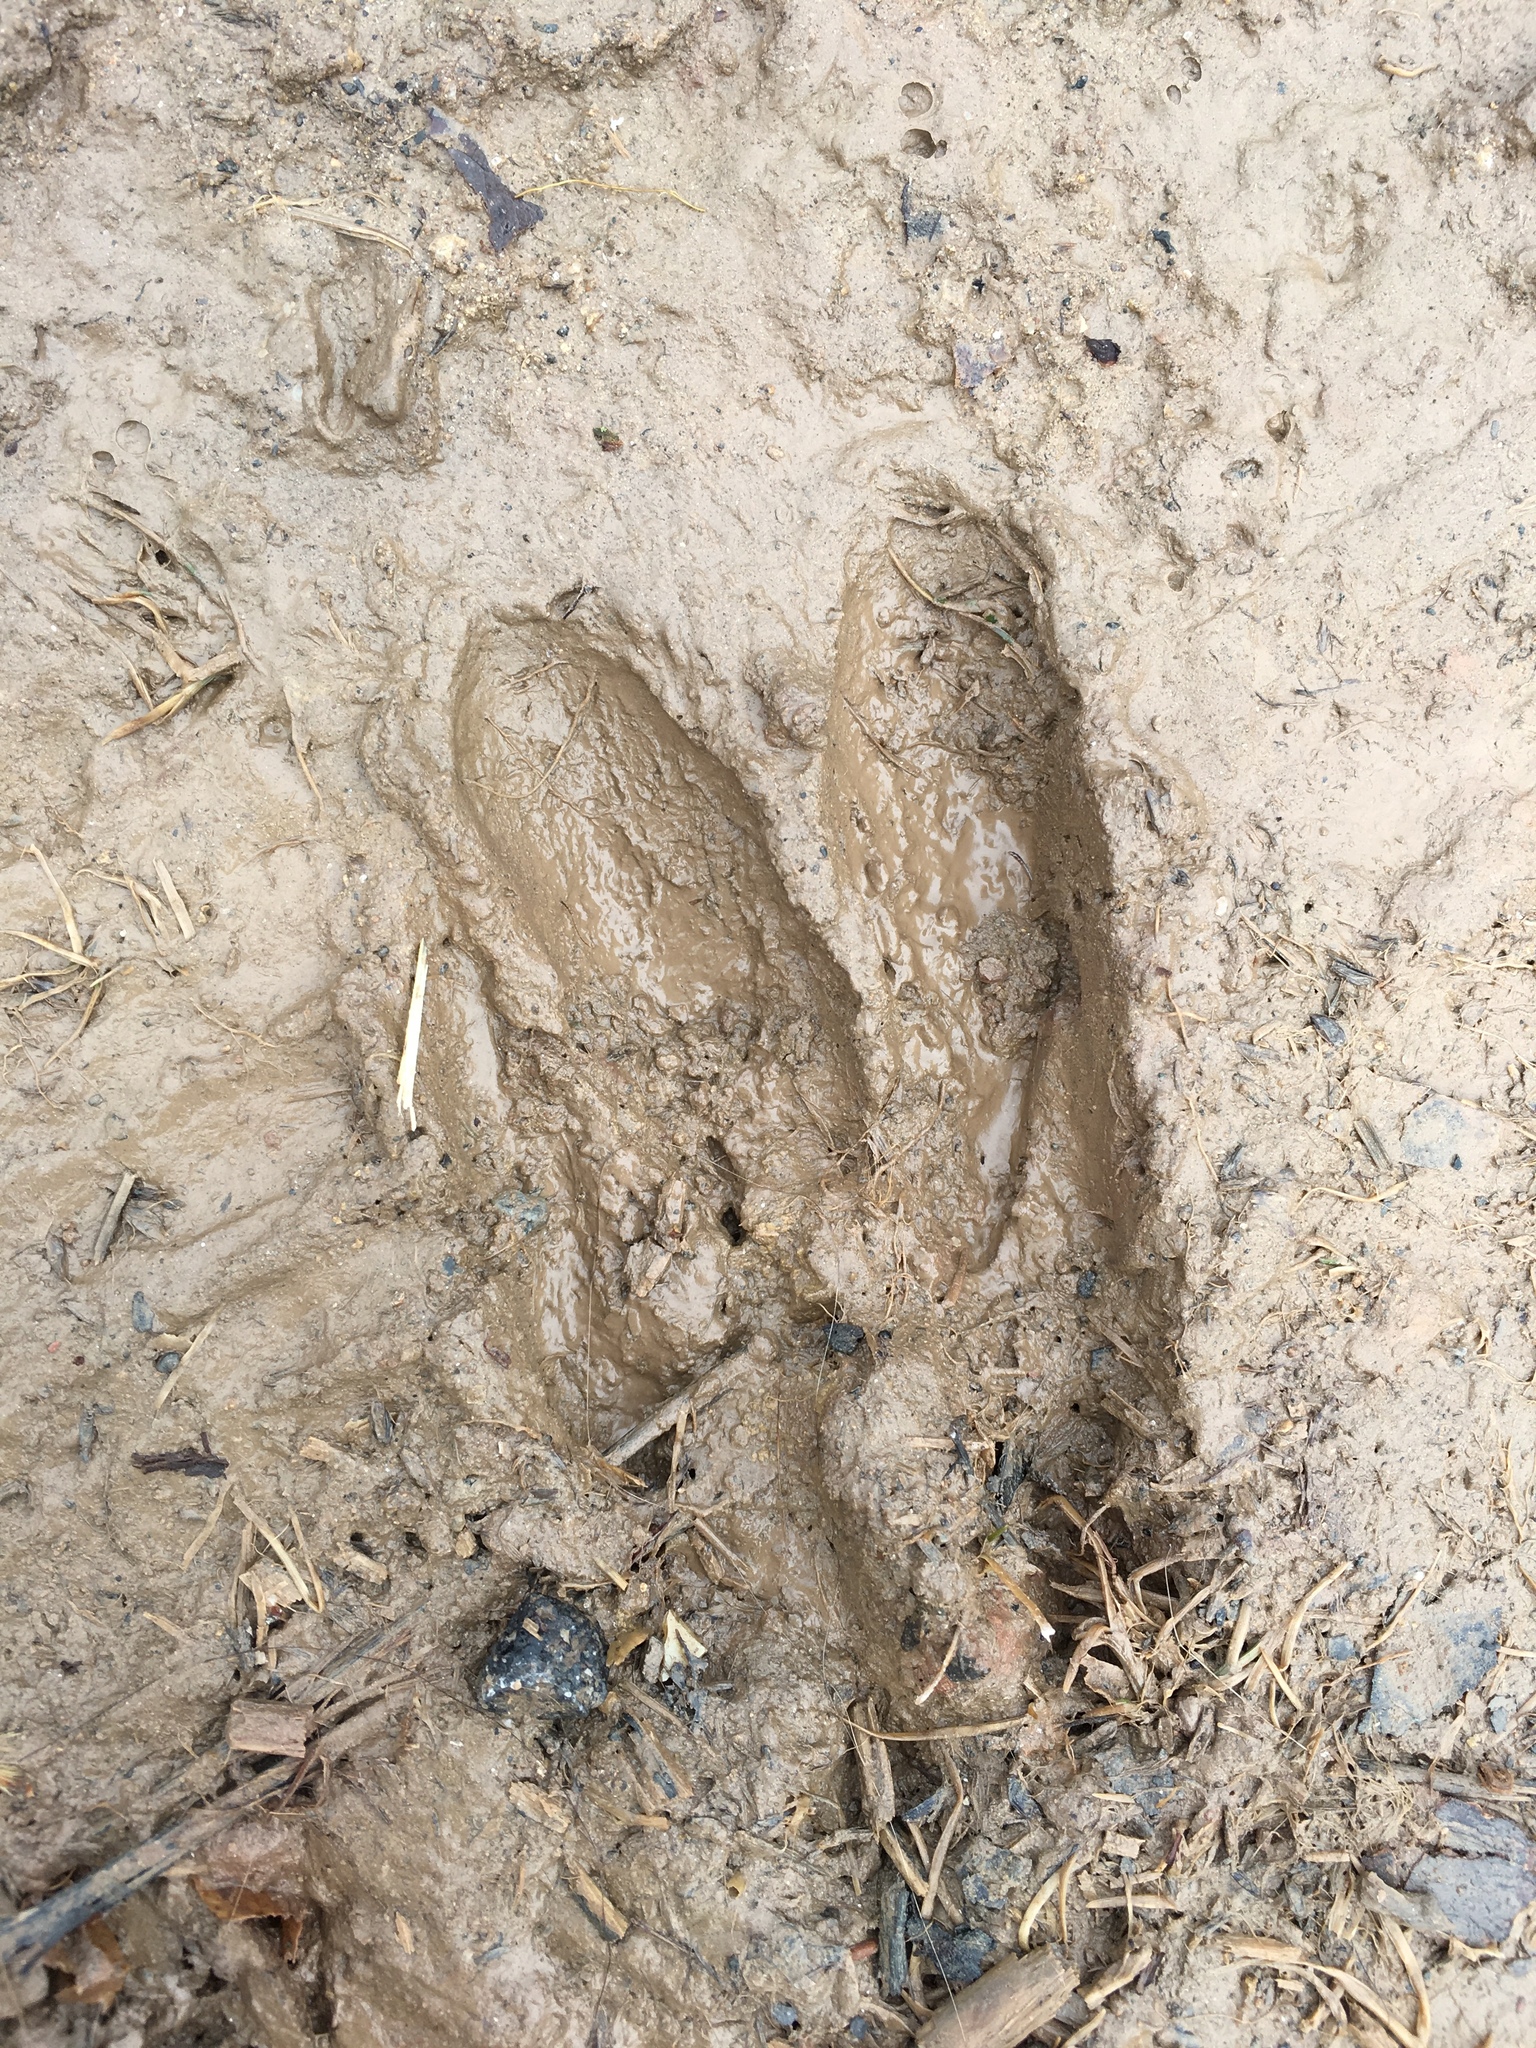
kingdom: Animalia
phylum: Chordata
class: Mammalia
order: Artiodactyla
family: Cervidae
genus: Odocoileus
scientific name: Odocoileus virginianus
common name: White-tailed deer
